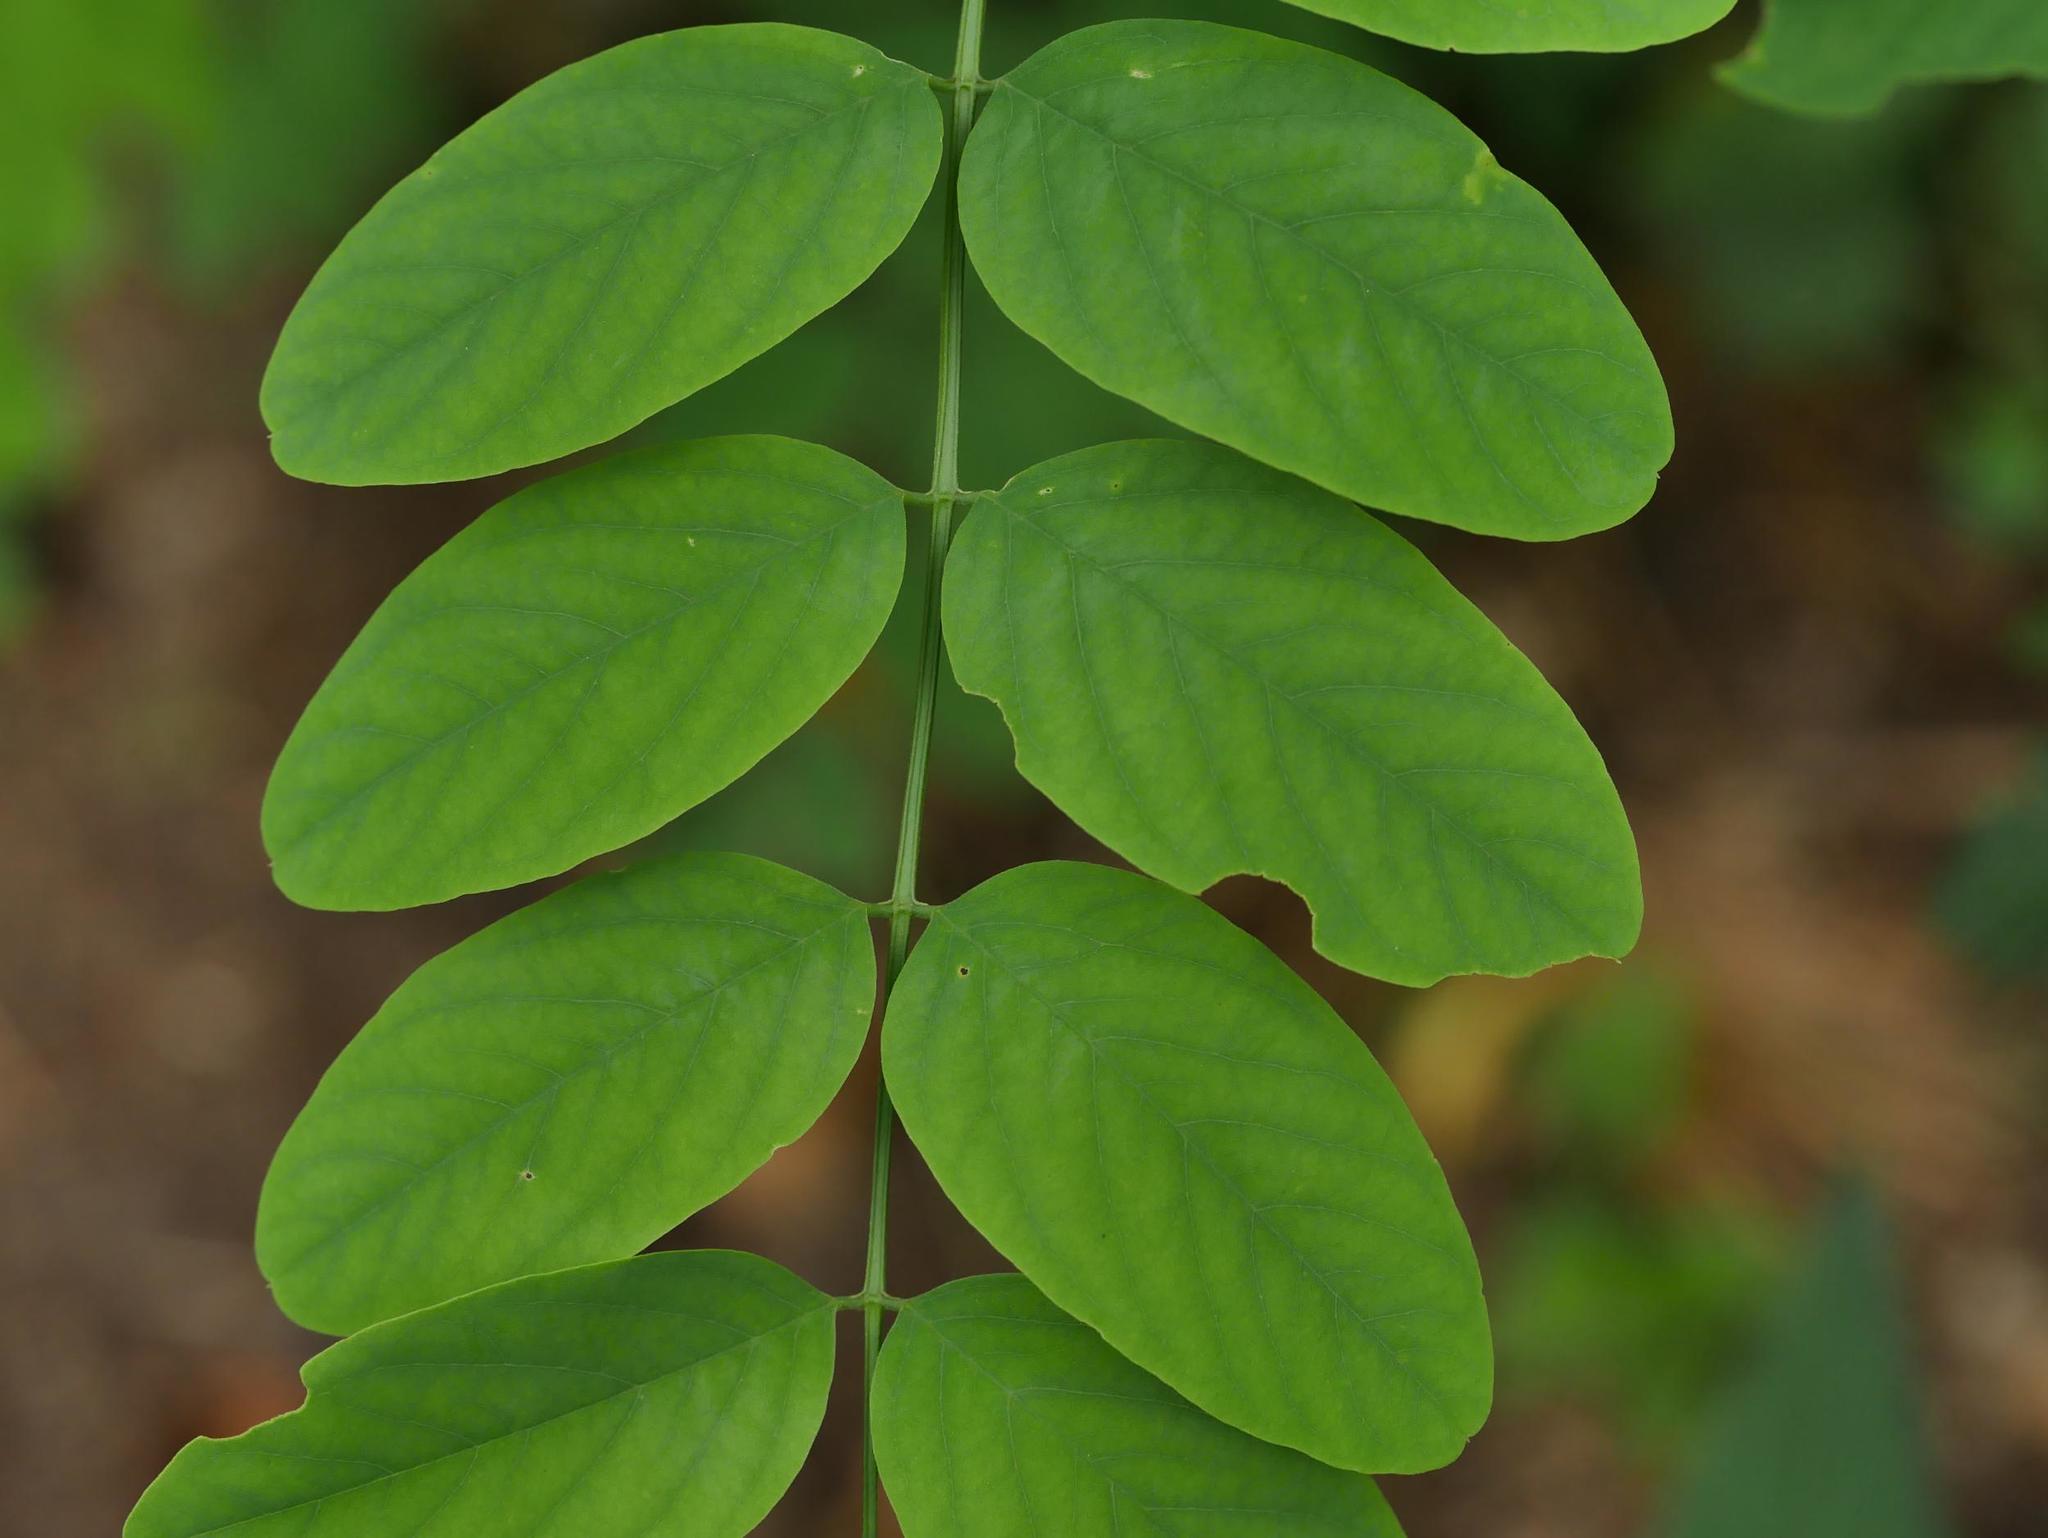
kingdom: Plantae
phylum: Tracheophyta
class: Magnoliopsida
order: Fabales
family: Fabaceae
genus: Robinia
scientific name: Robinia pseudoacacia
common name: Black locust
